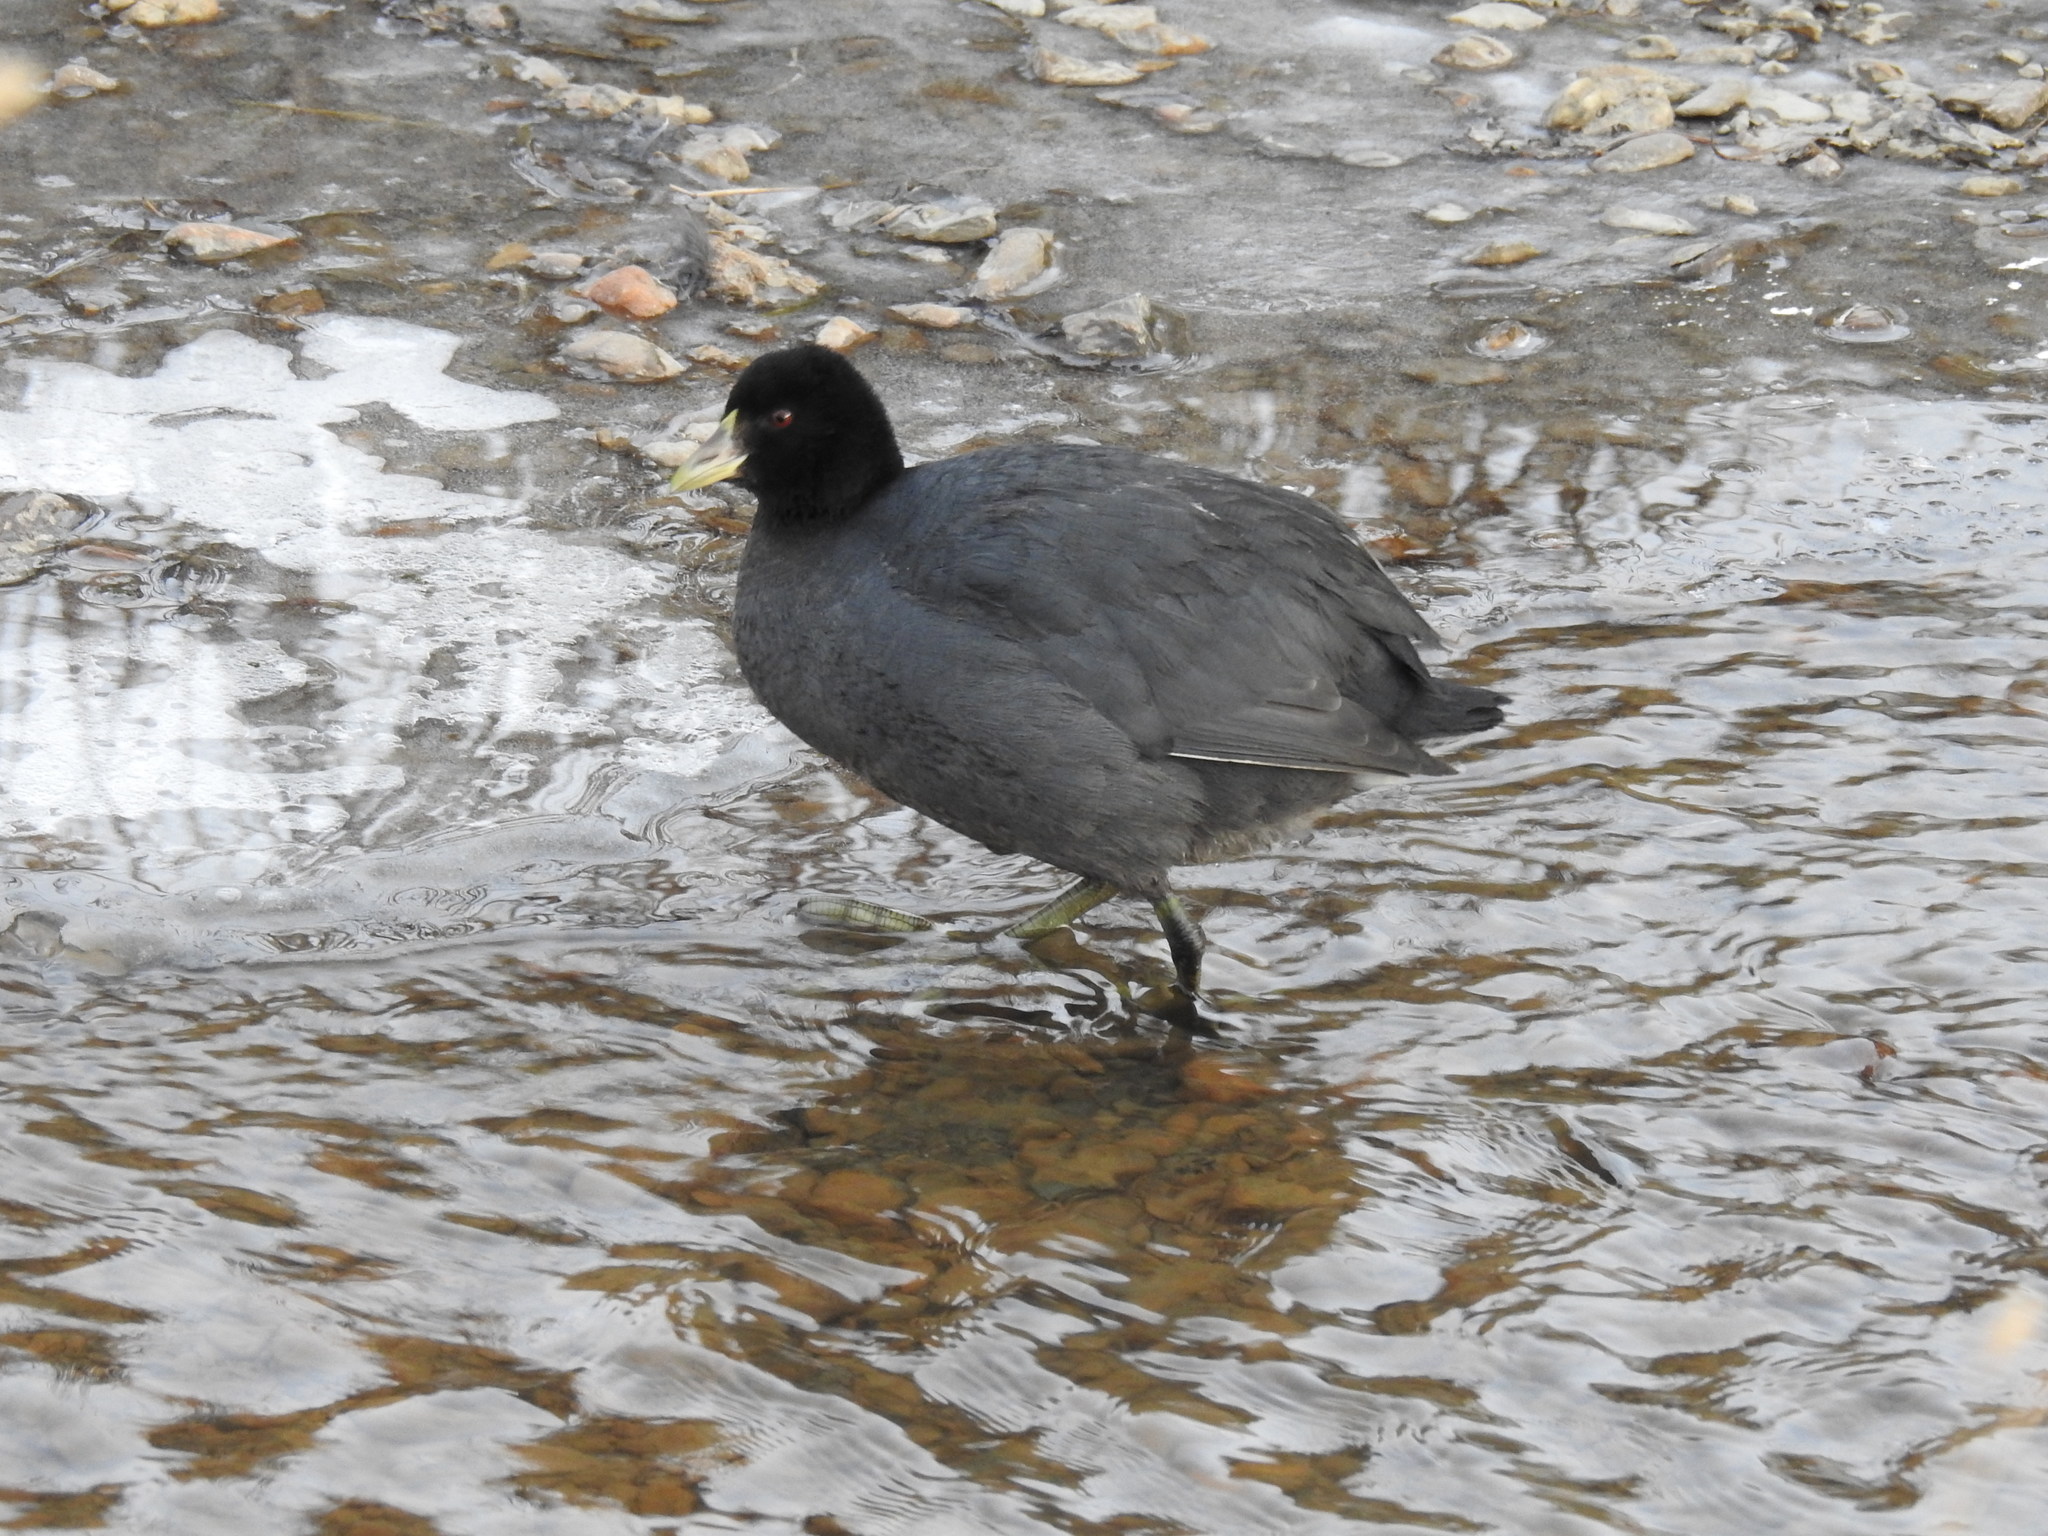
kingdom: Animalia
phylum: Chordata
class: Aves
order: Gruiformes
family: Rallidae
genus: Fulica
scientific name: Fulica armillata
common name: Red-gartered coot
